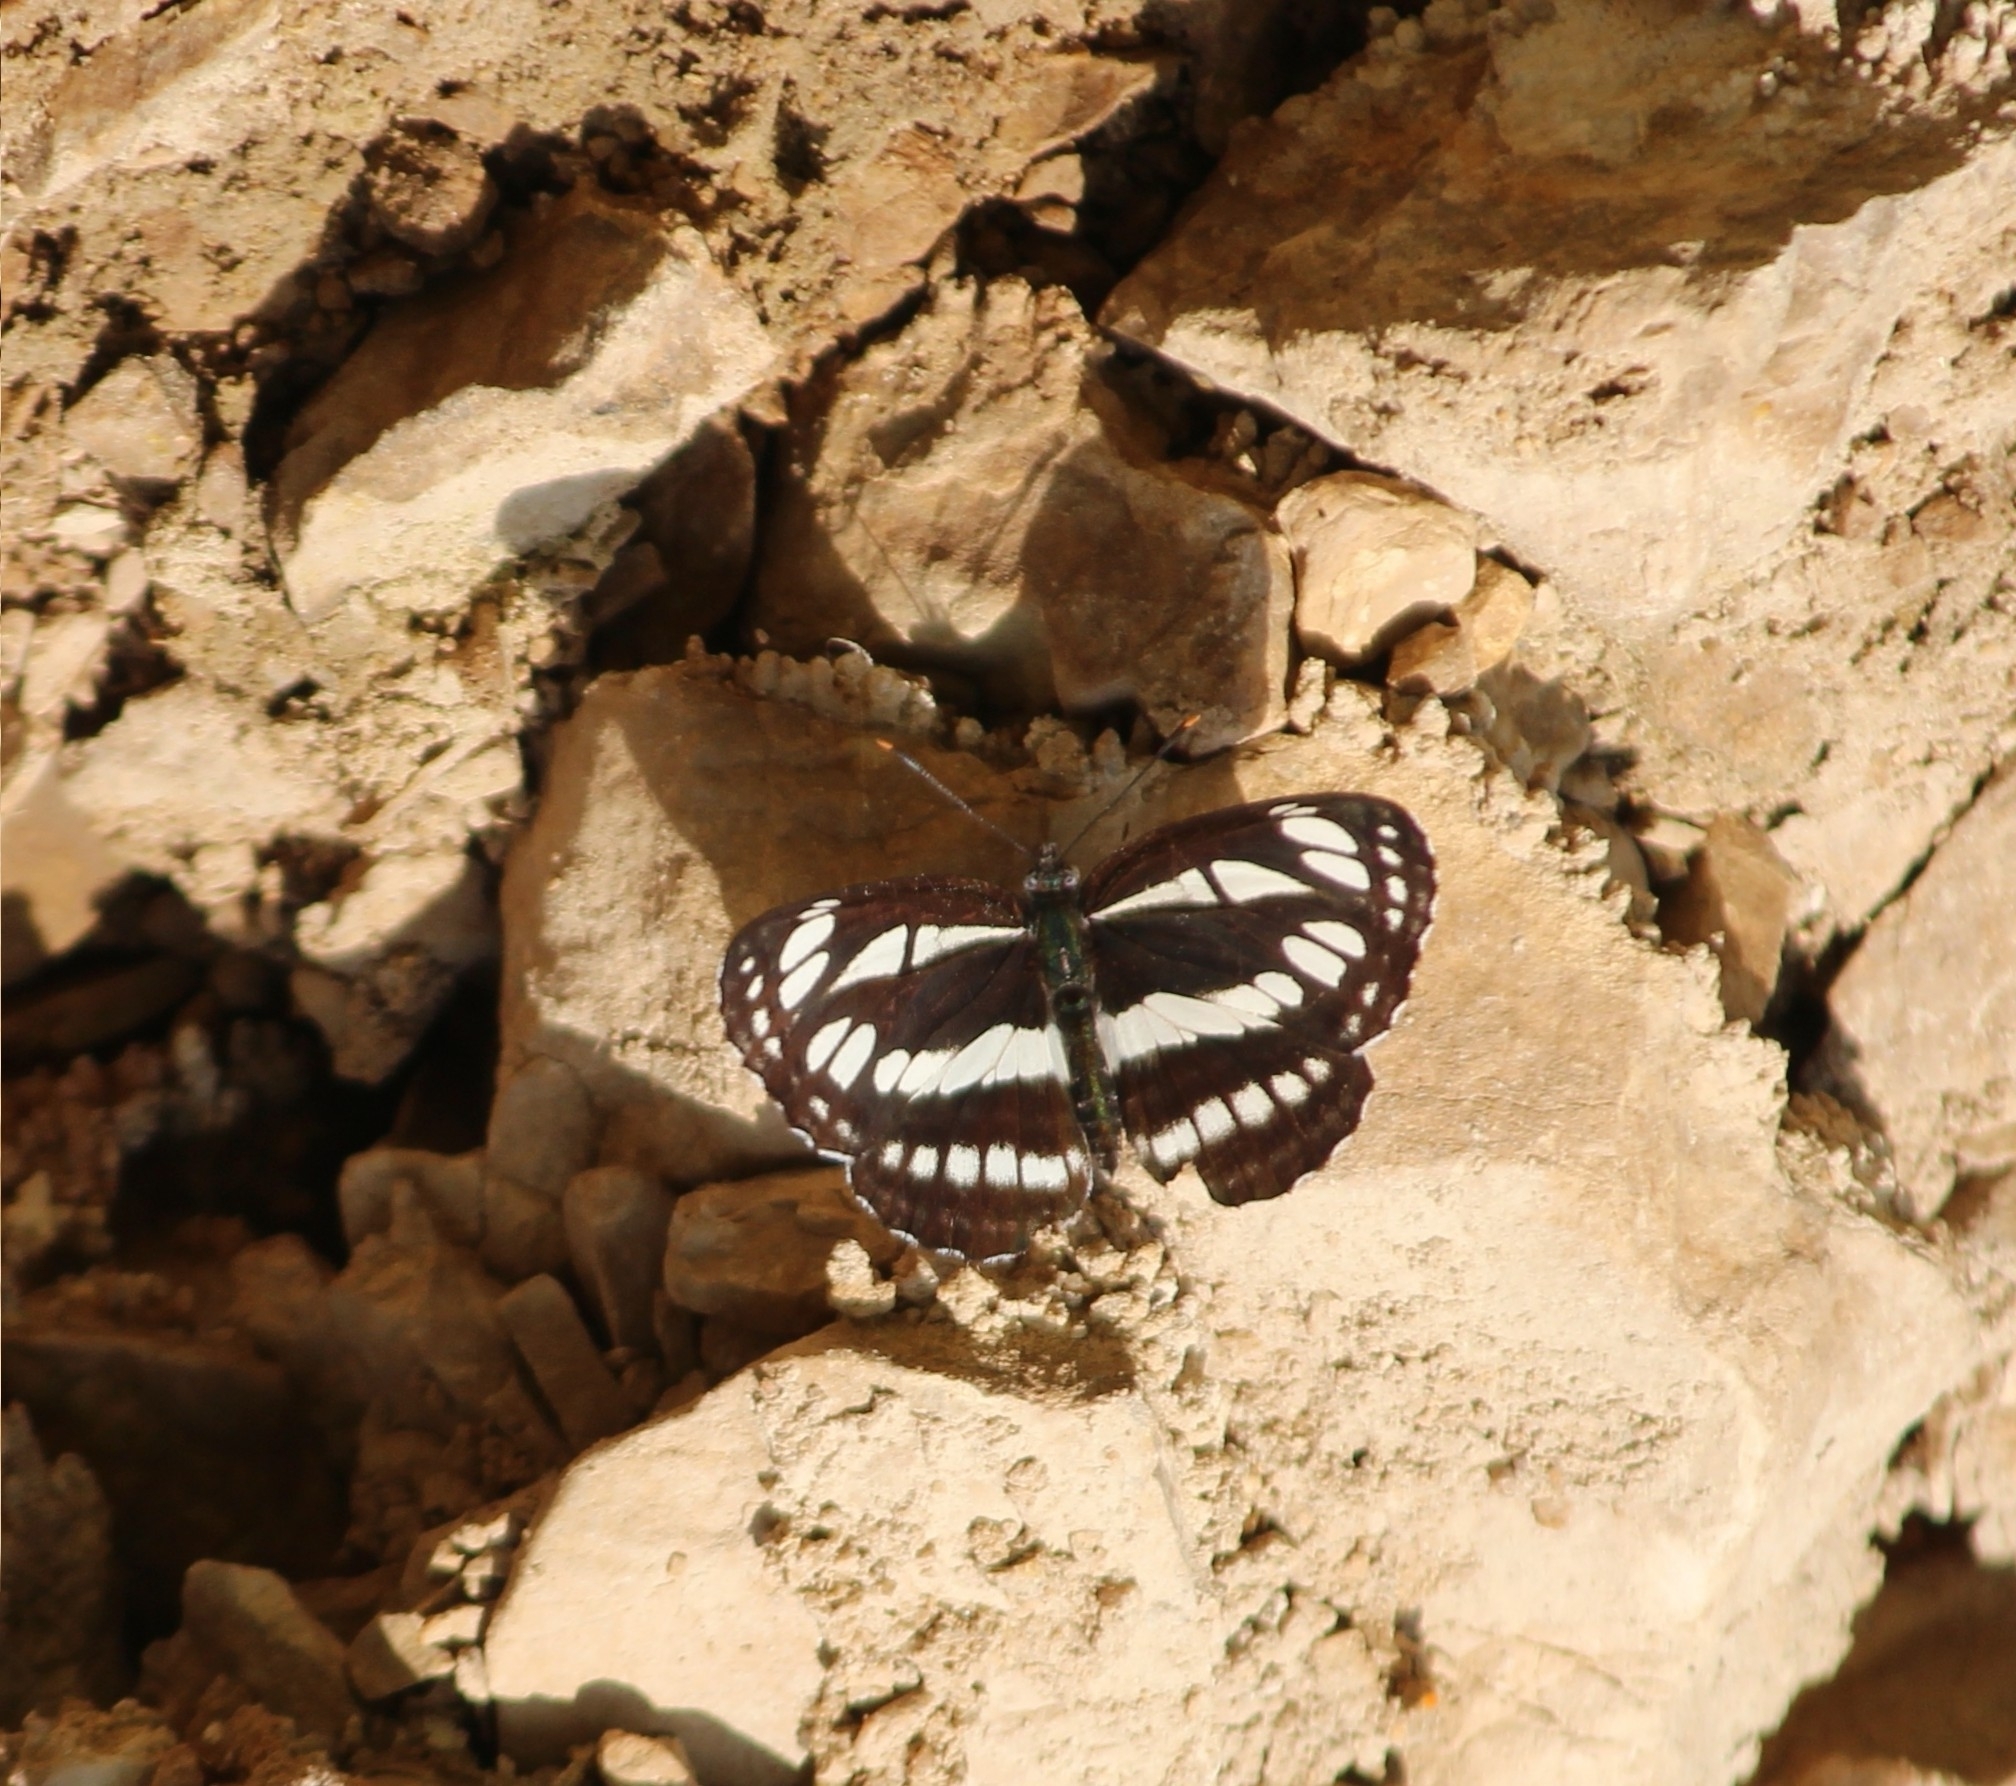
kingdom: Animalia
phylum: Arthropoda
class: Insecta
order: Lepidoptera
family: Nymphalidae
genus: Neptis
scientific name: Neptis sappho
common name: Common glider
